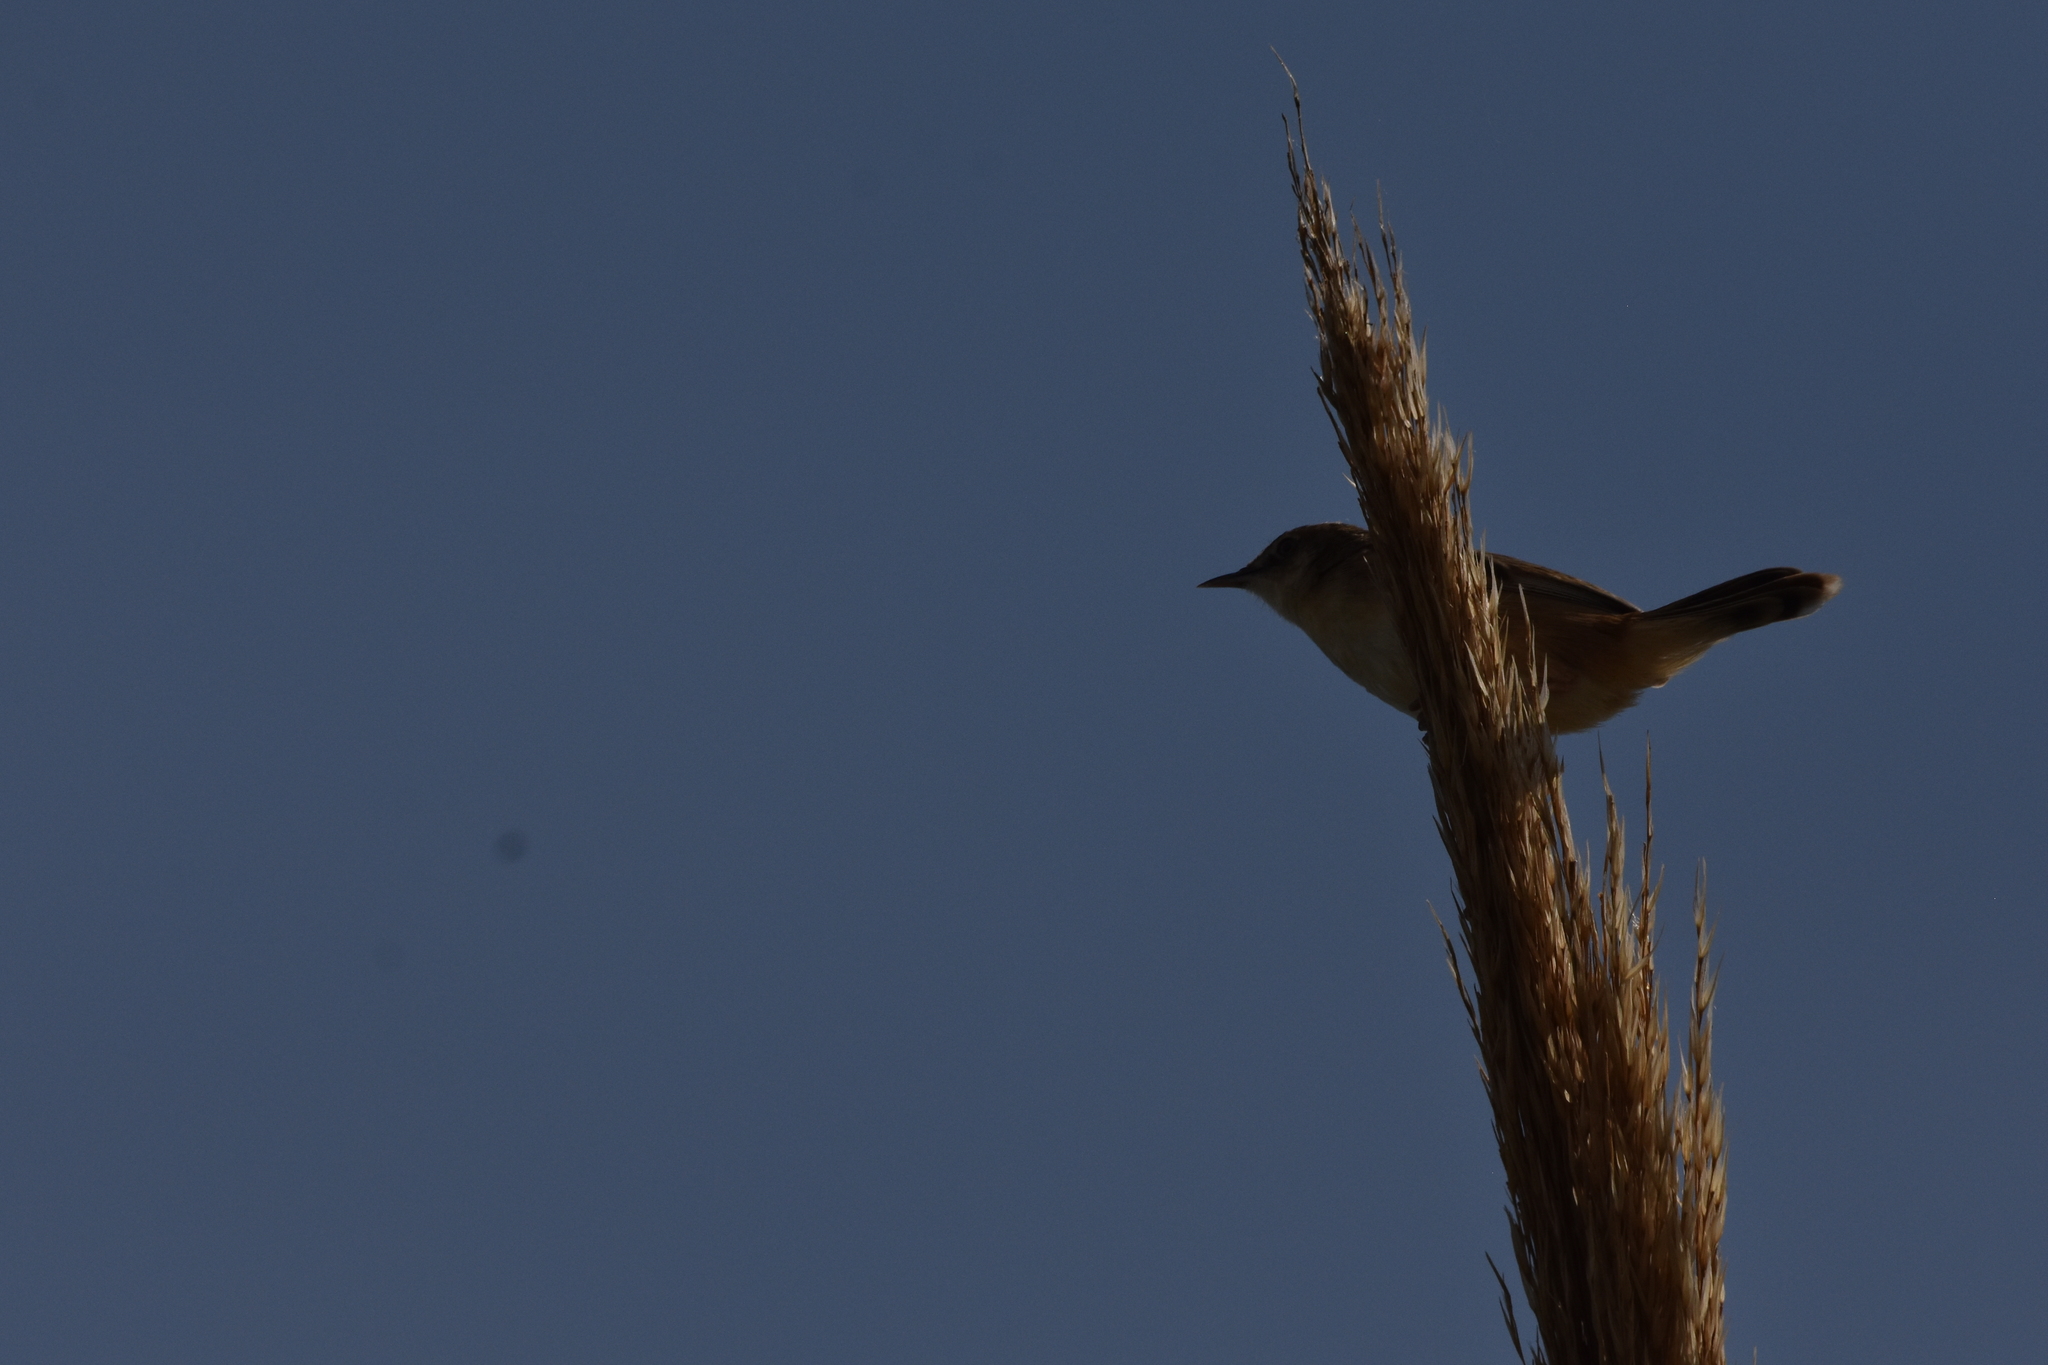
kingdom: Animalia
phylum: Chordata
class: Aves
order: Passeriformes
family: Cisticolidae
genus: Cisticola
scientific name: Cisticola juncidis
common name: Zitting cisticola
